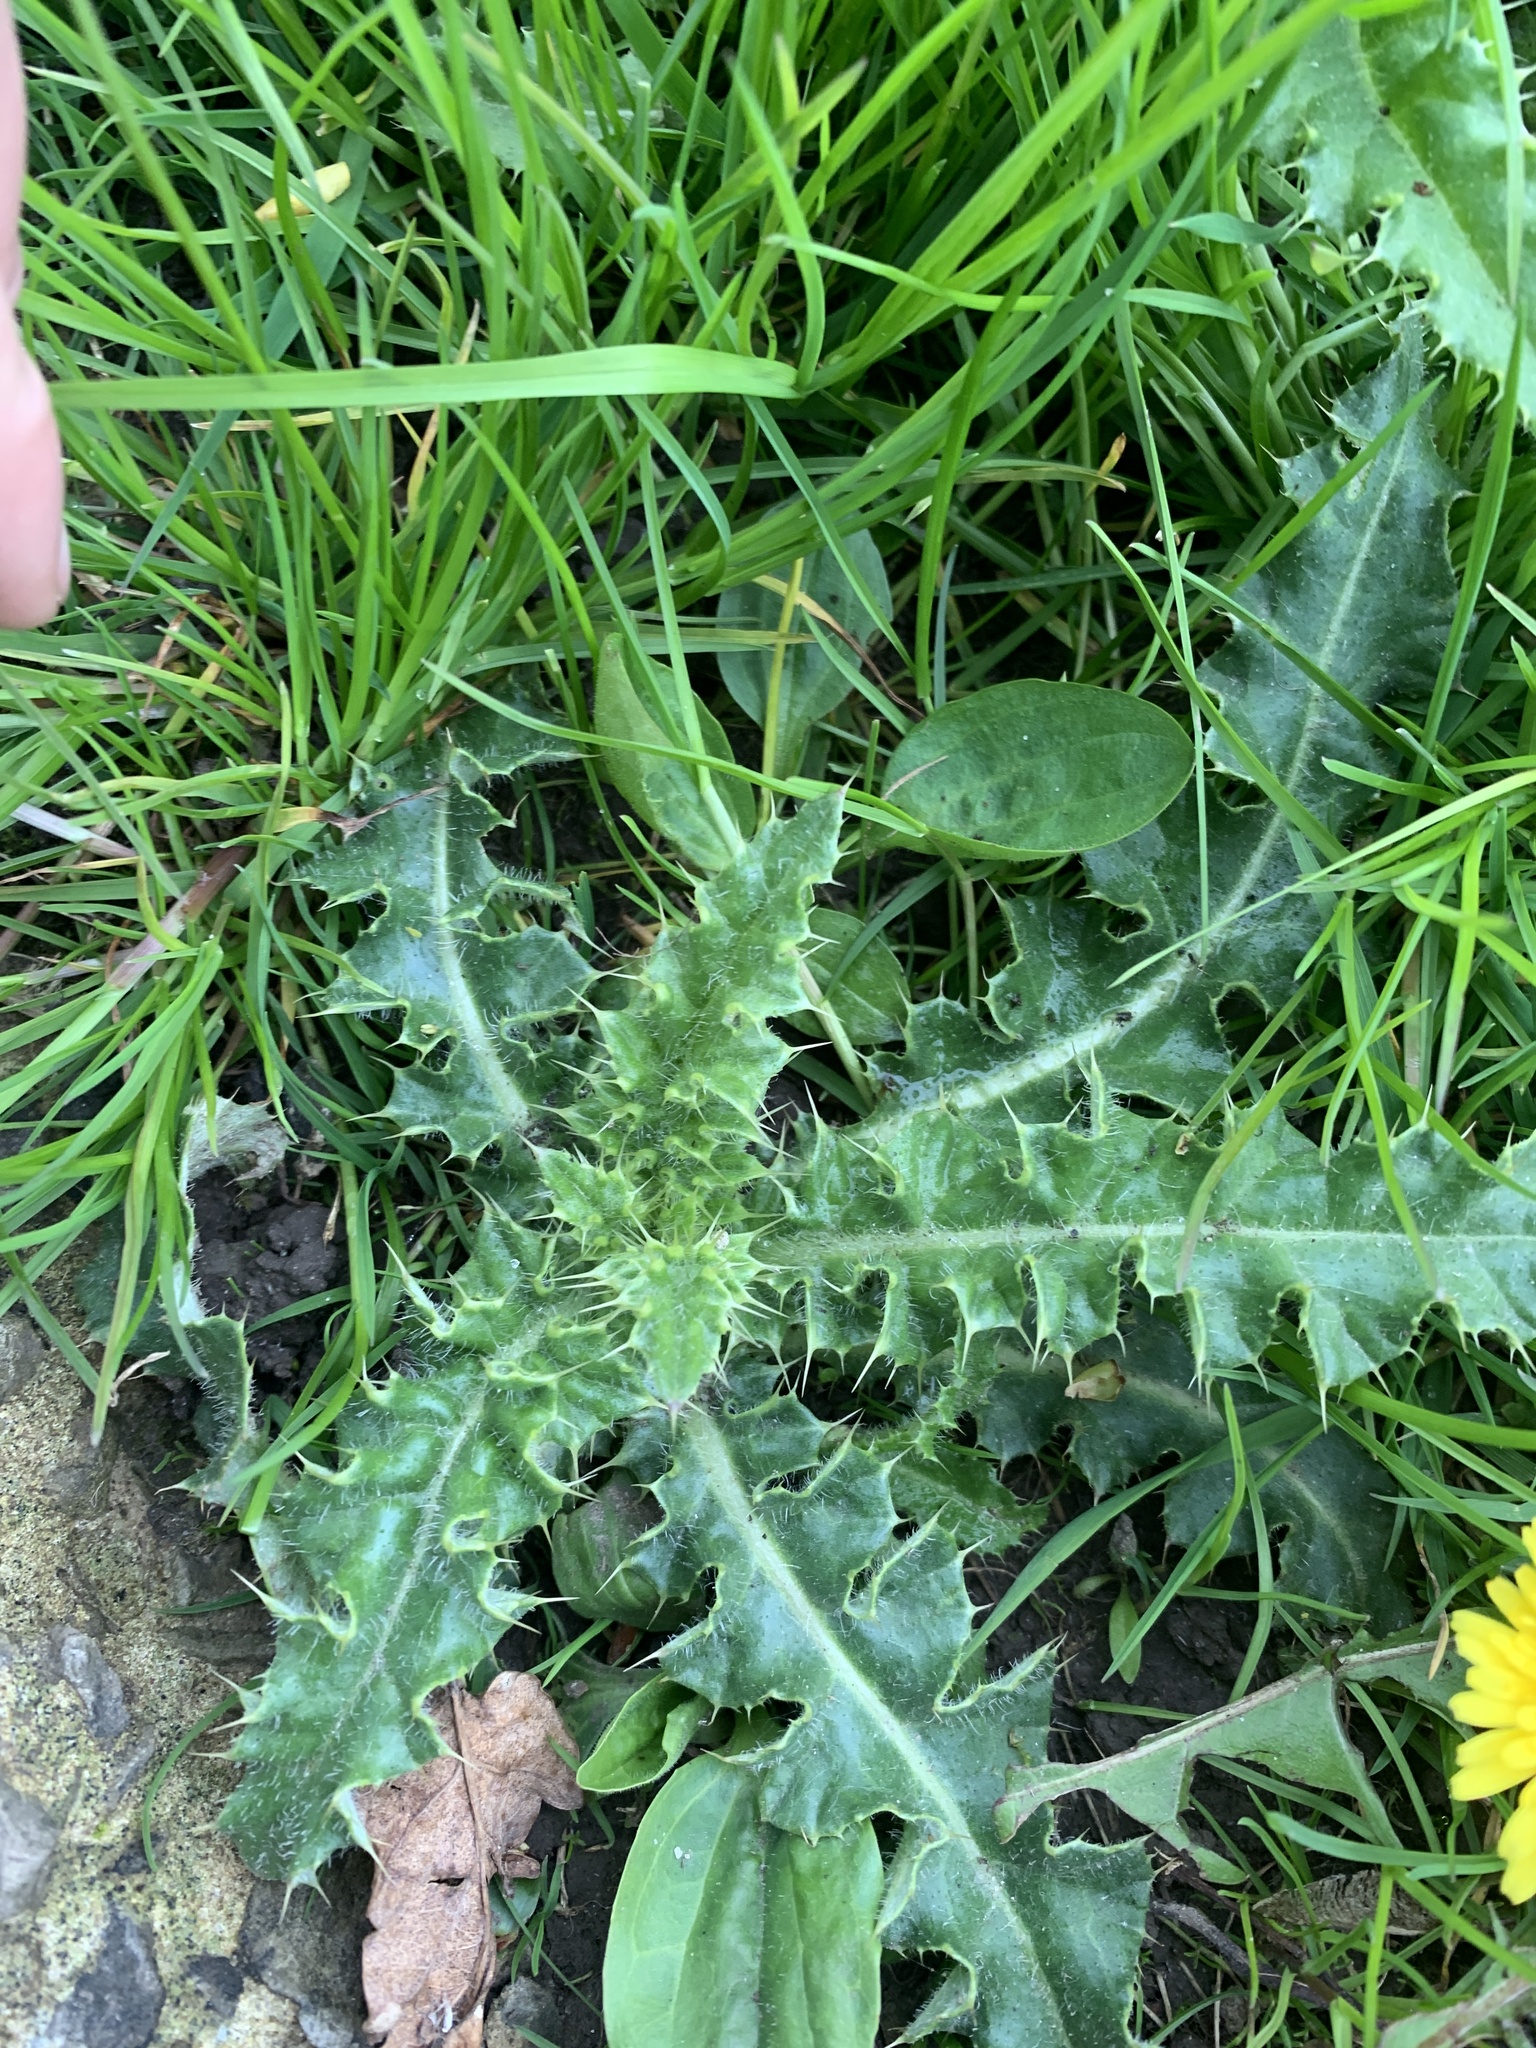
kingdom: Plantae
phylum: Tracheophyta
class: Magnoliopsida
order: Asterales
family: Asteraceae
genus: Cirsium
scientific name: Cirsium arvense
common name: Creeping thistle
